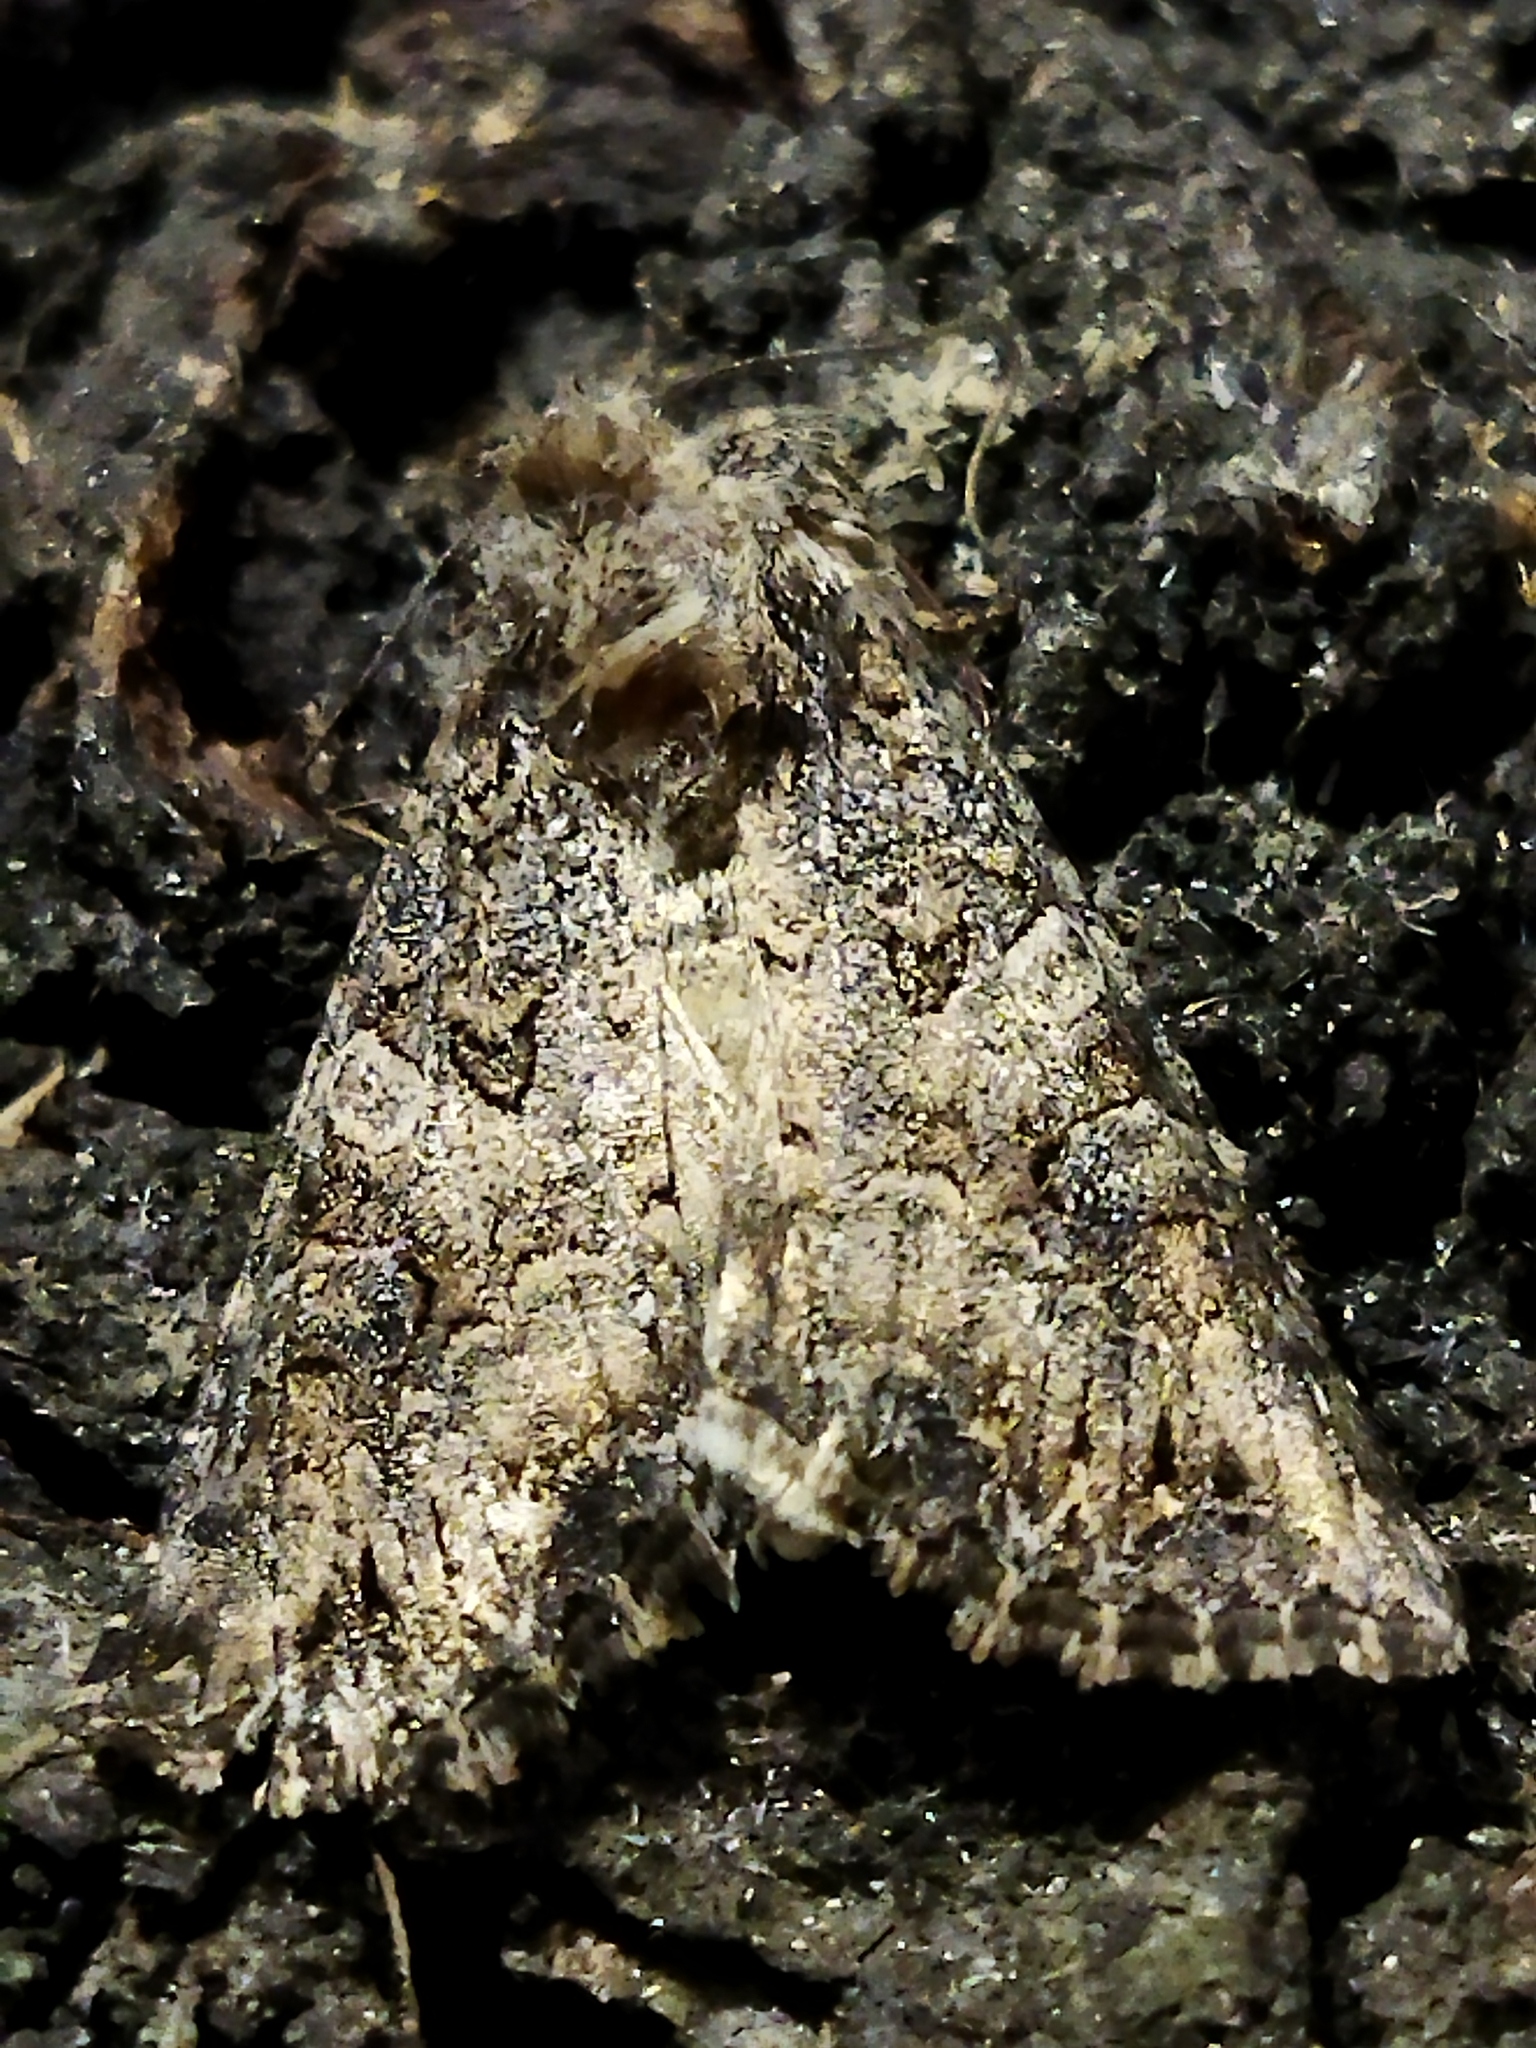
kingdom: Animalia
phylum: Arthropoda
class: Insecta
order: Lepidoptera
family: Noctuidae
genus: Anarta
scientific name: Anarta trifolii
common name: Clover cutworm moth
